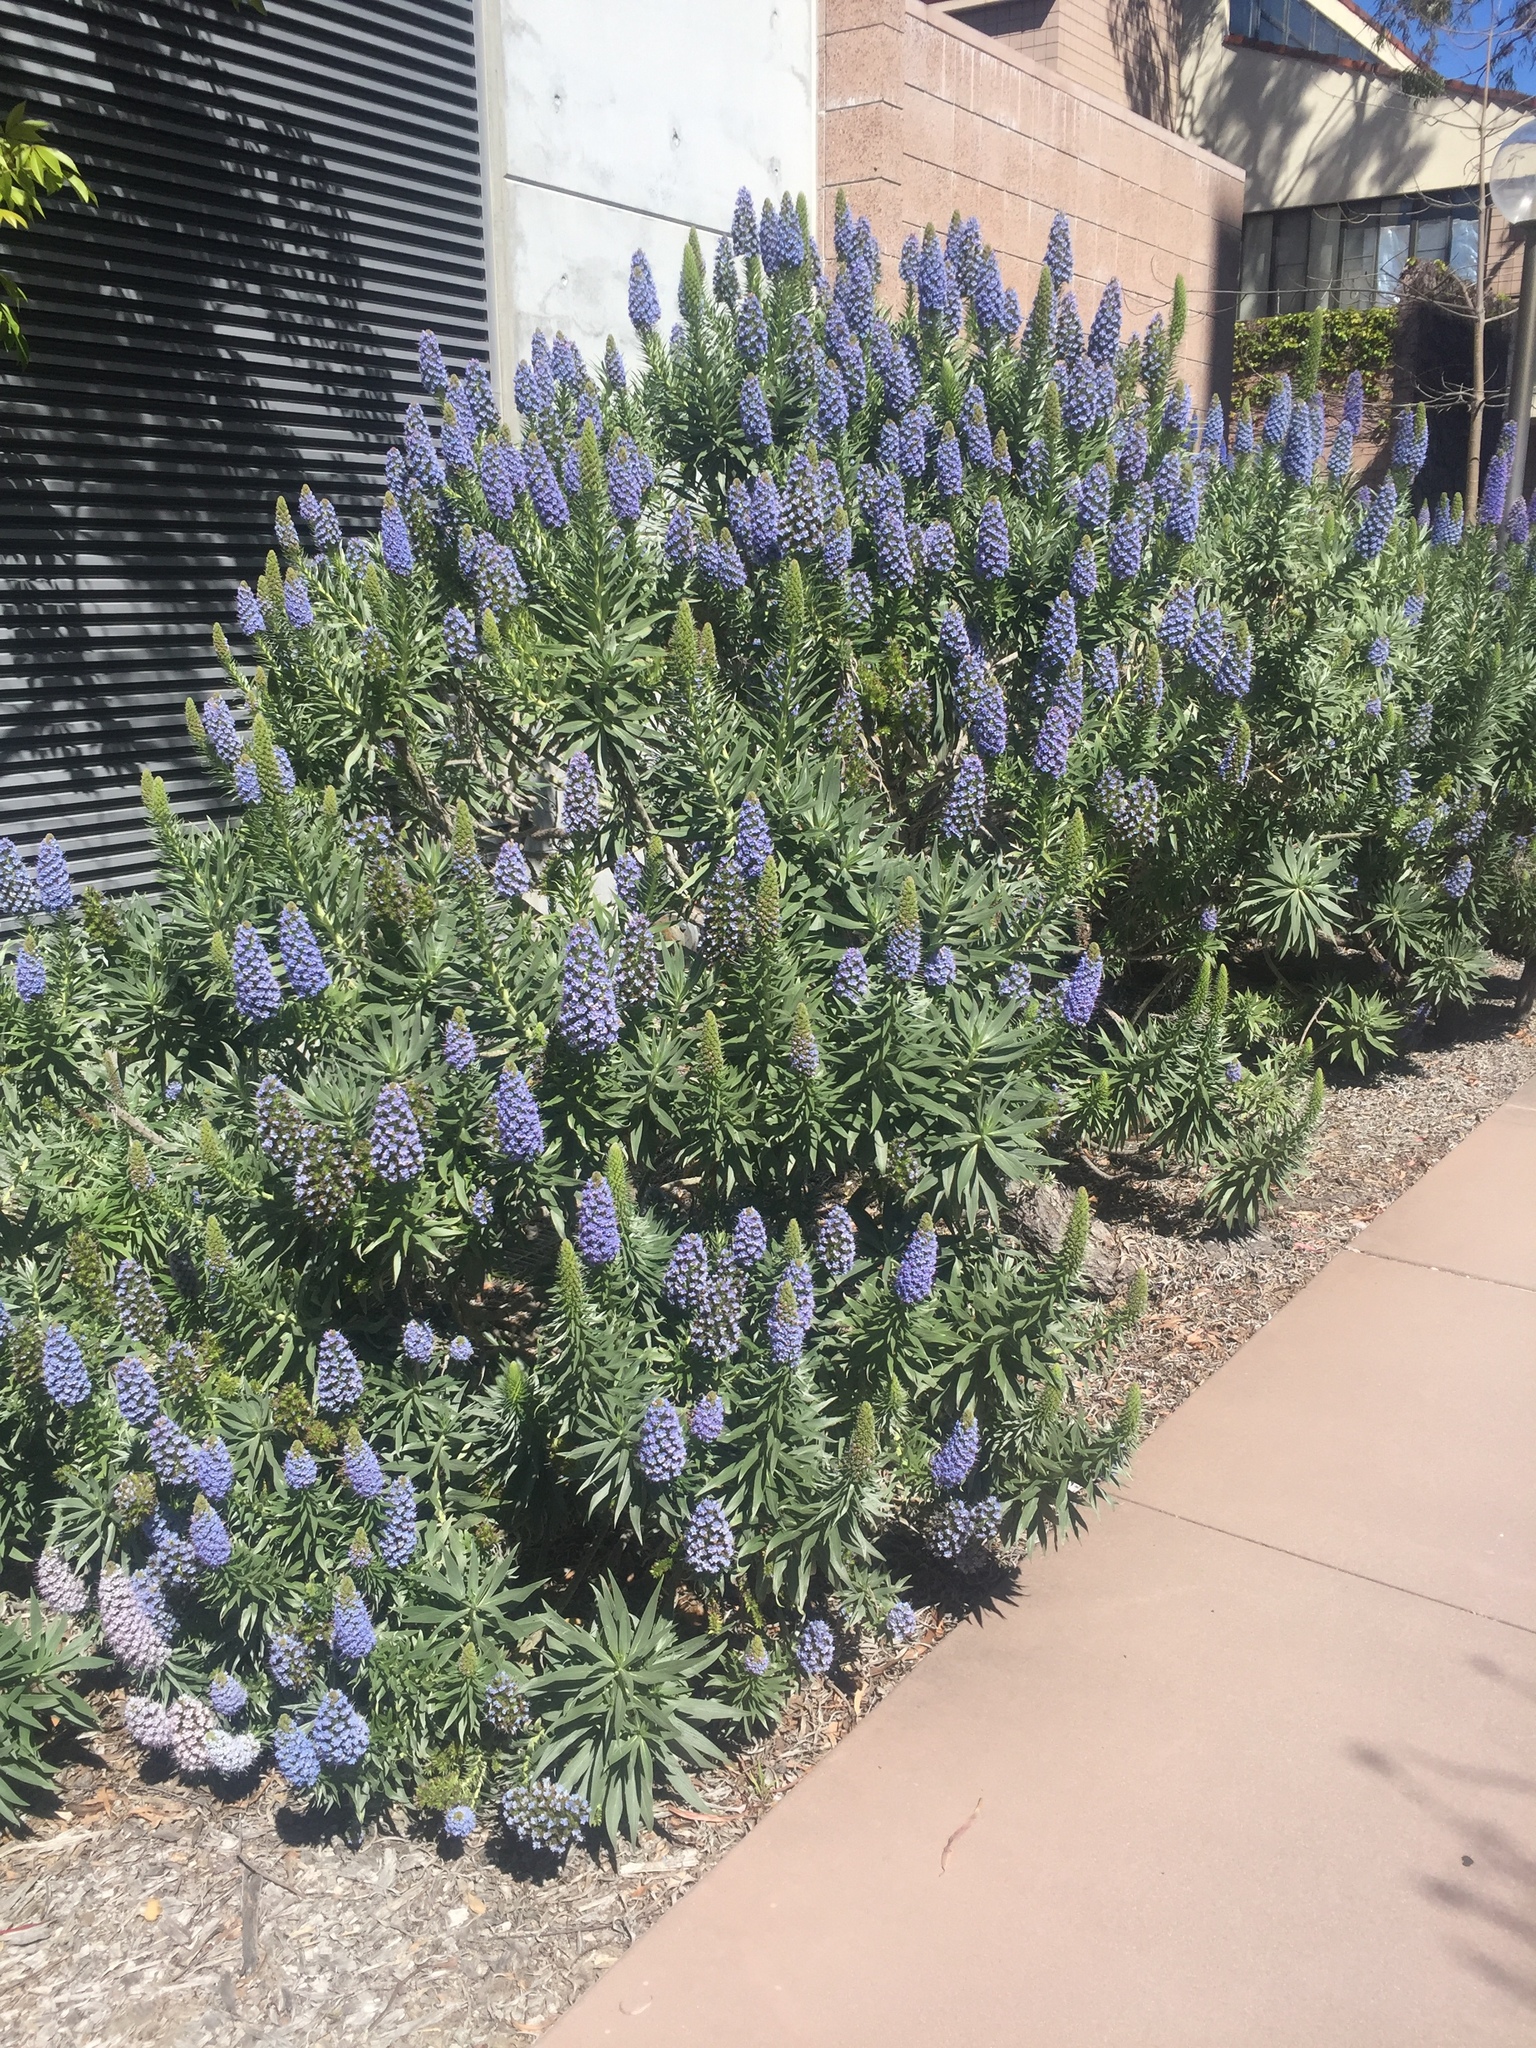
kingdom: Animalia
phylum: Arthropoda
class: Insecta
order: Hymenoptera
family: Apidae
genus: Apis
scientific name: Apis mellifera
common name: Honey bee
